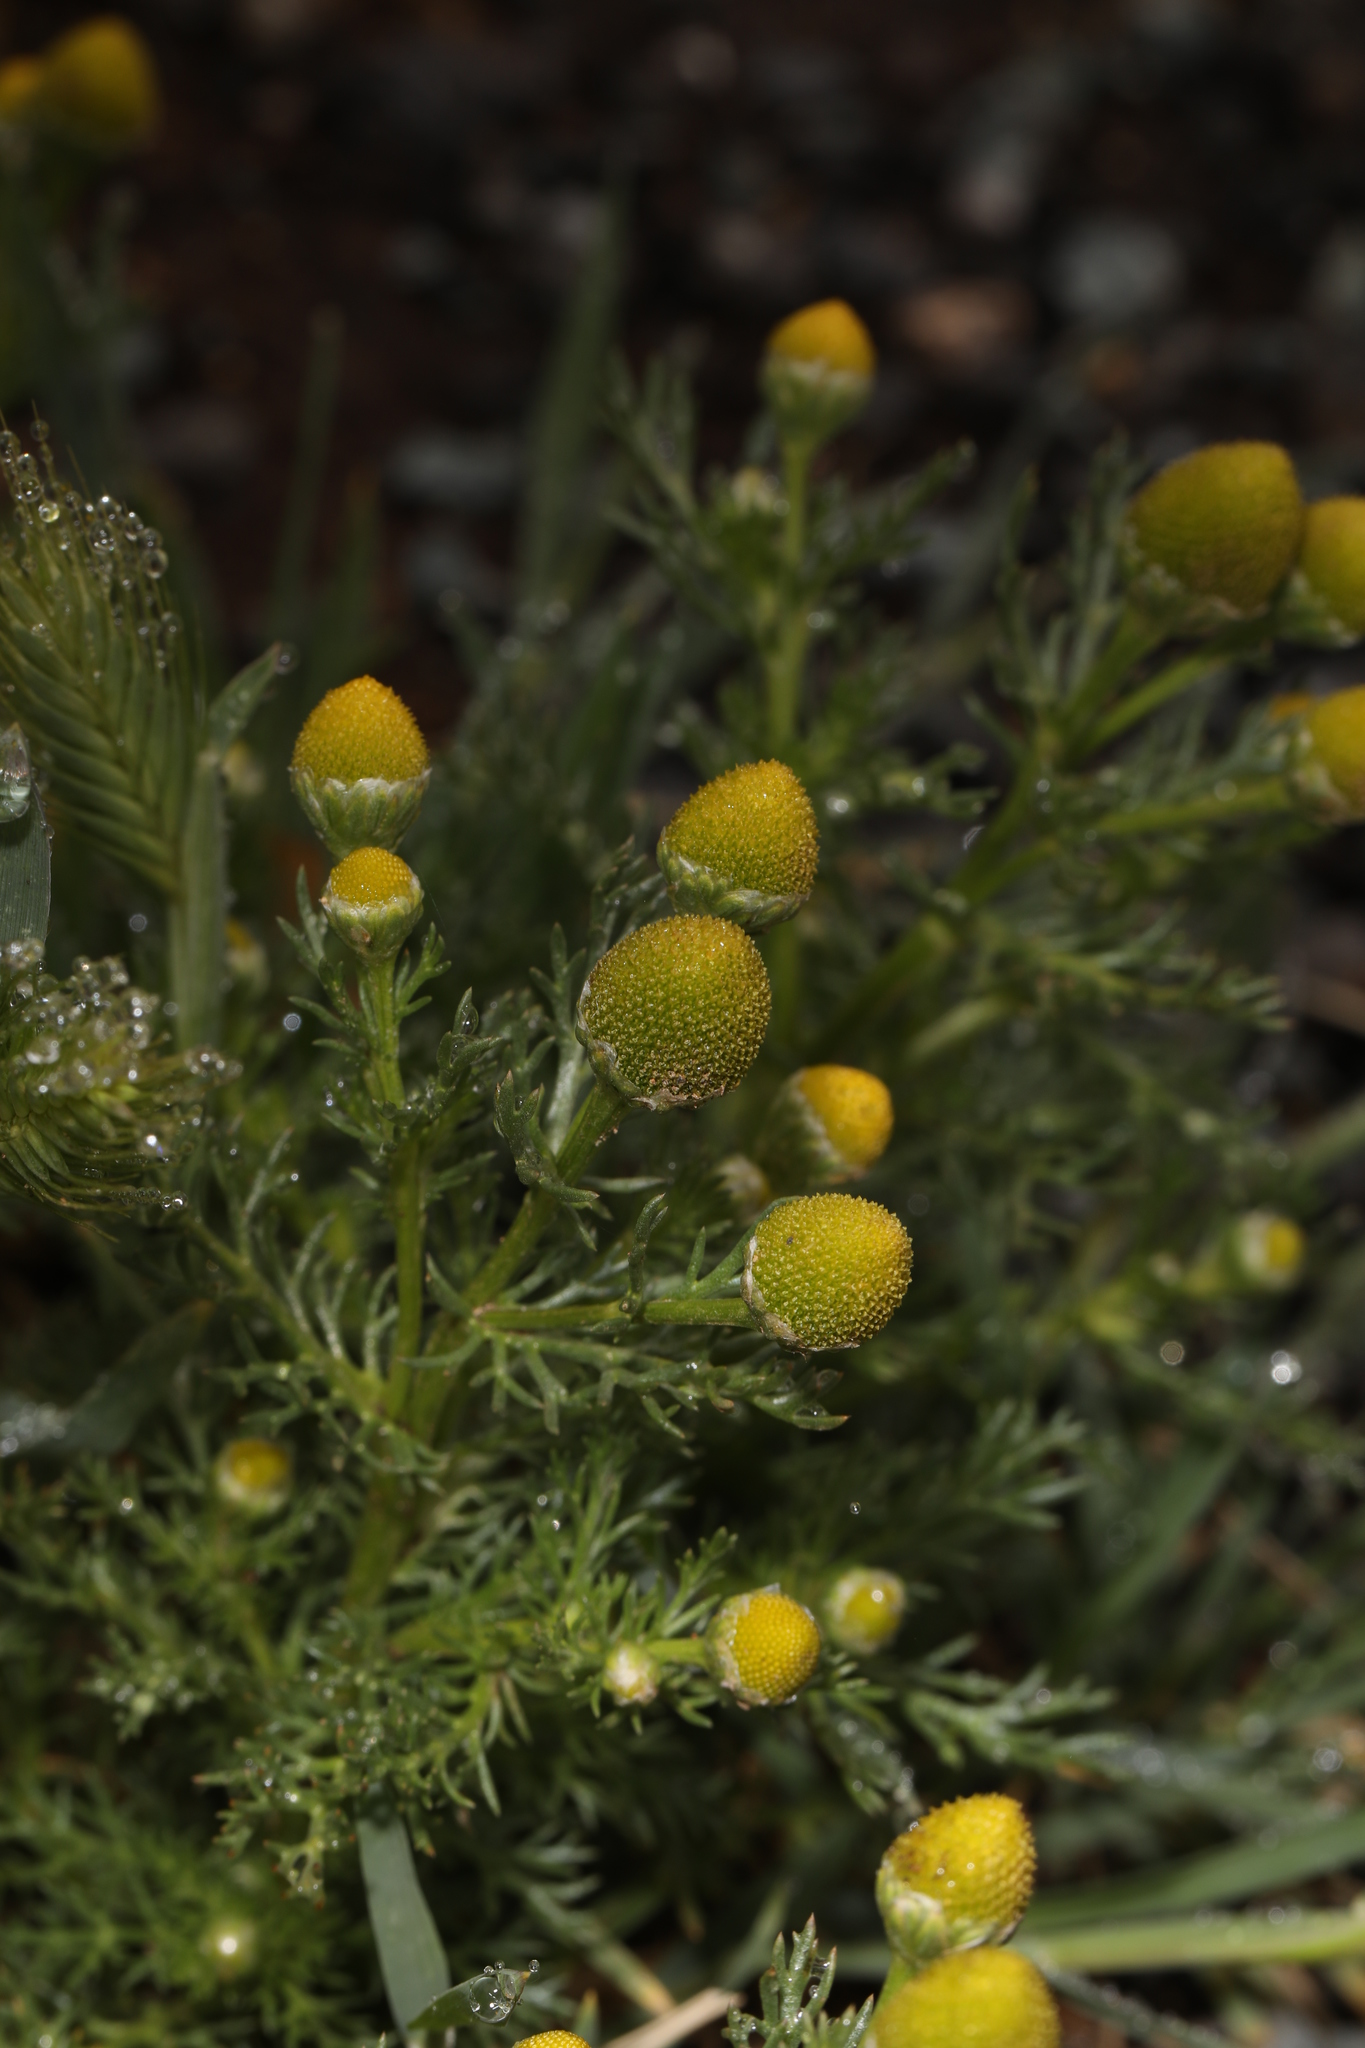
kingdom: Plantae
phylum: Tracheophyta
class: Magnoliopsida
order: Asterales
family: Asteraceae
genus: Matricaria
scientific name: Matricaria discoidea
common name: Disc mayweed
